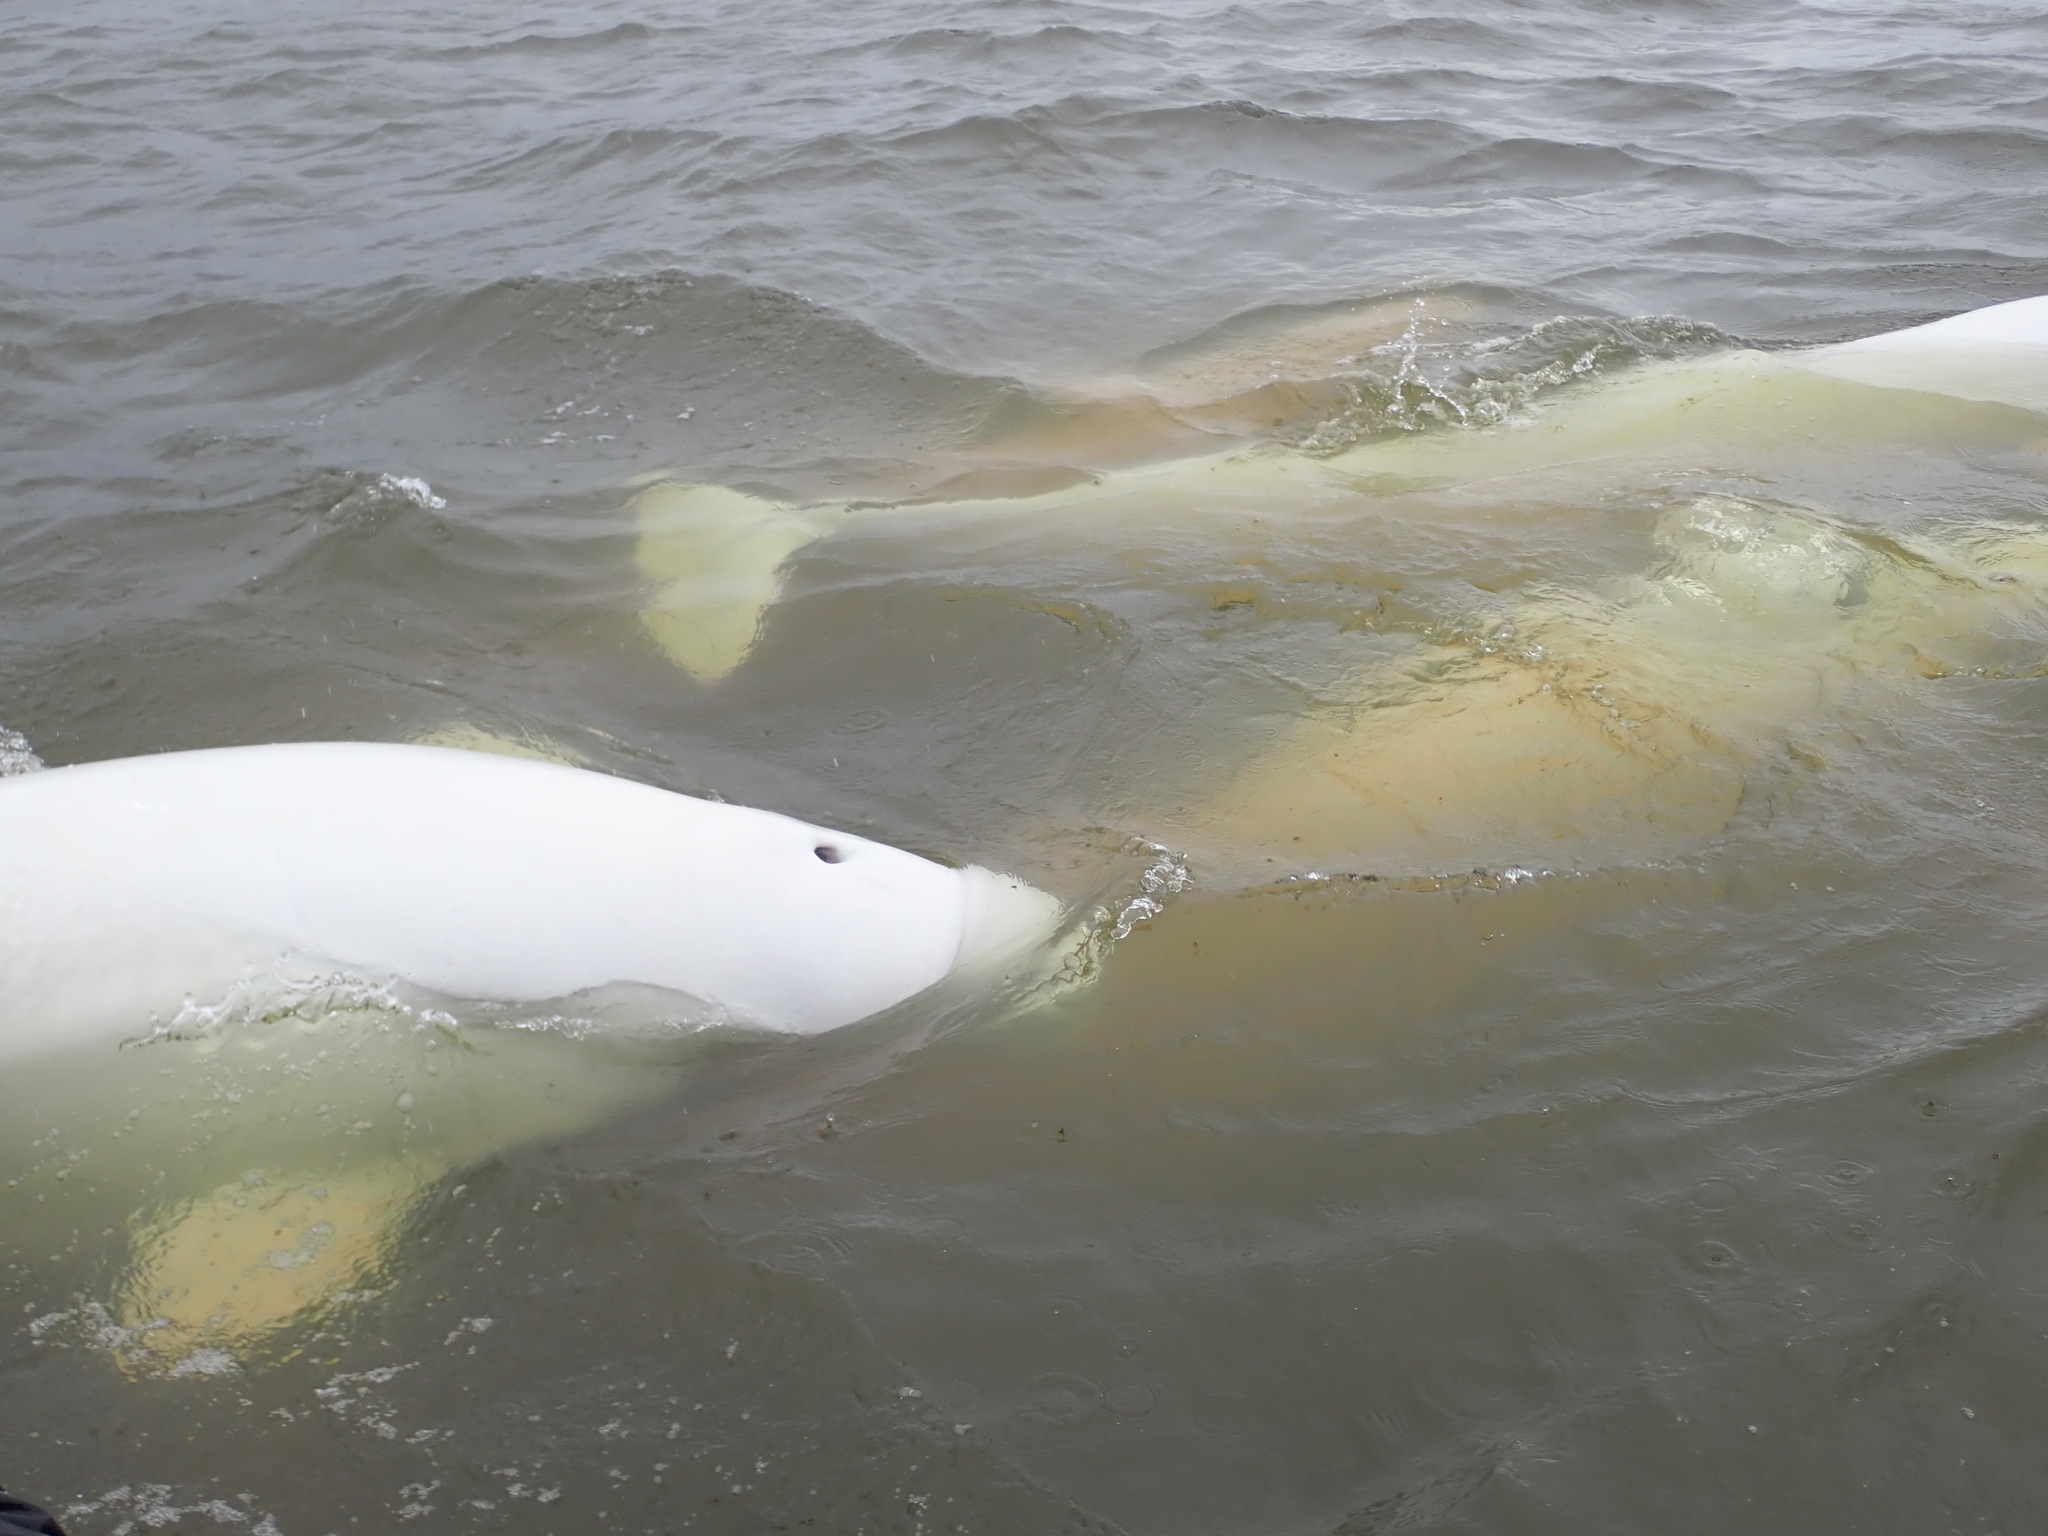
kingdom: Animalia
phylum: Chordata
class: Mammalia
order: Cetacea
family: Monodontidae
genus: Delphinapterus
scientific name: Delphinapterus leucas
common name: Beluga
